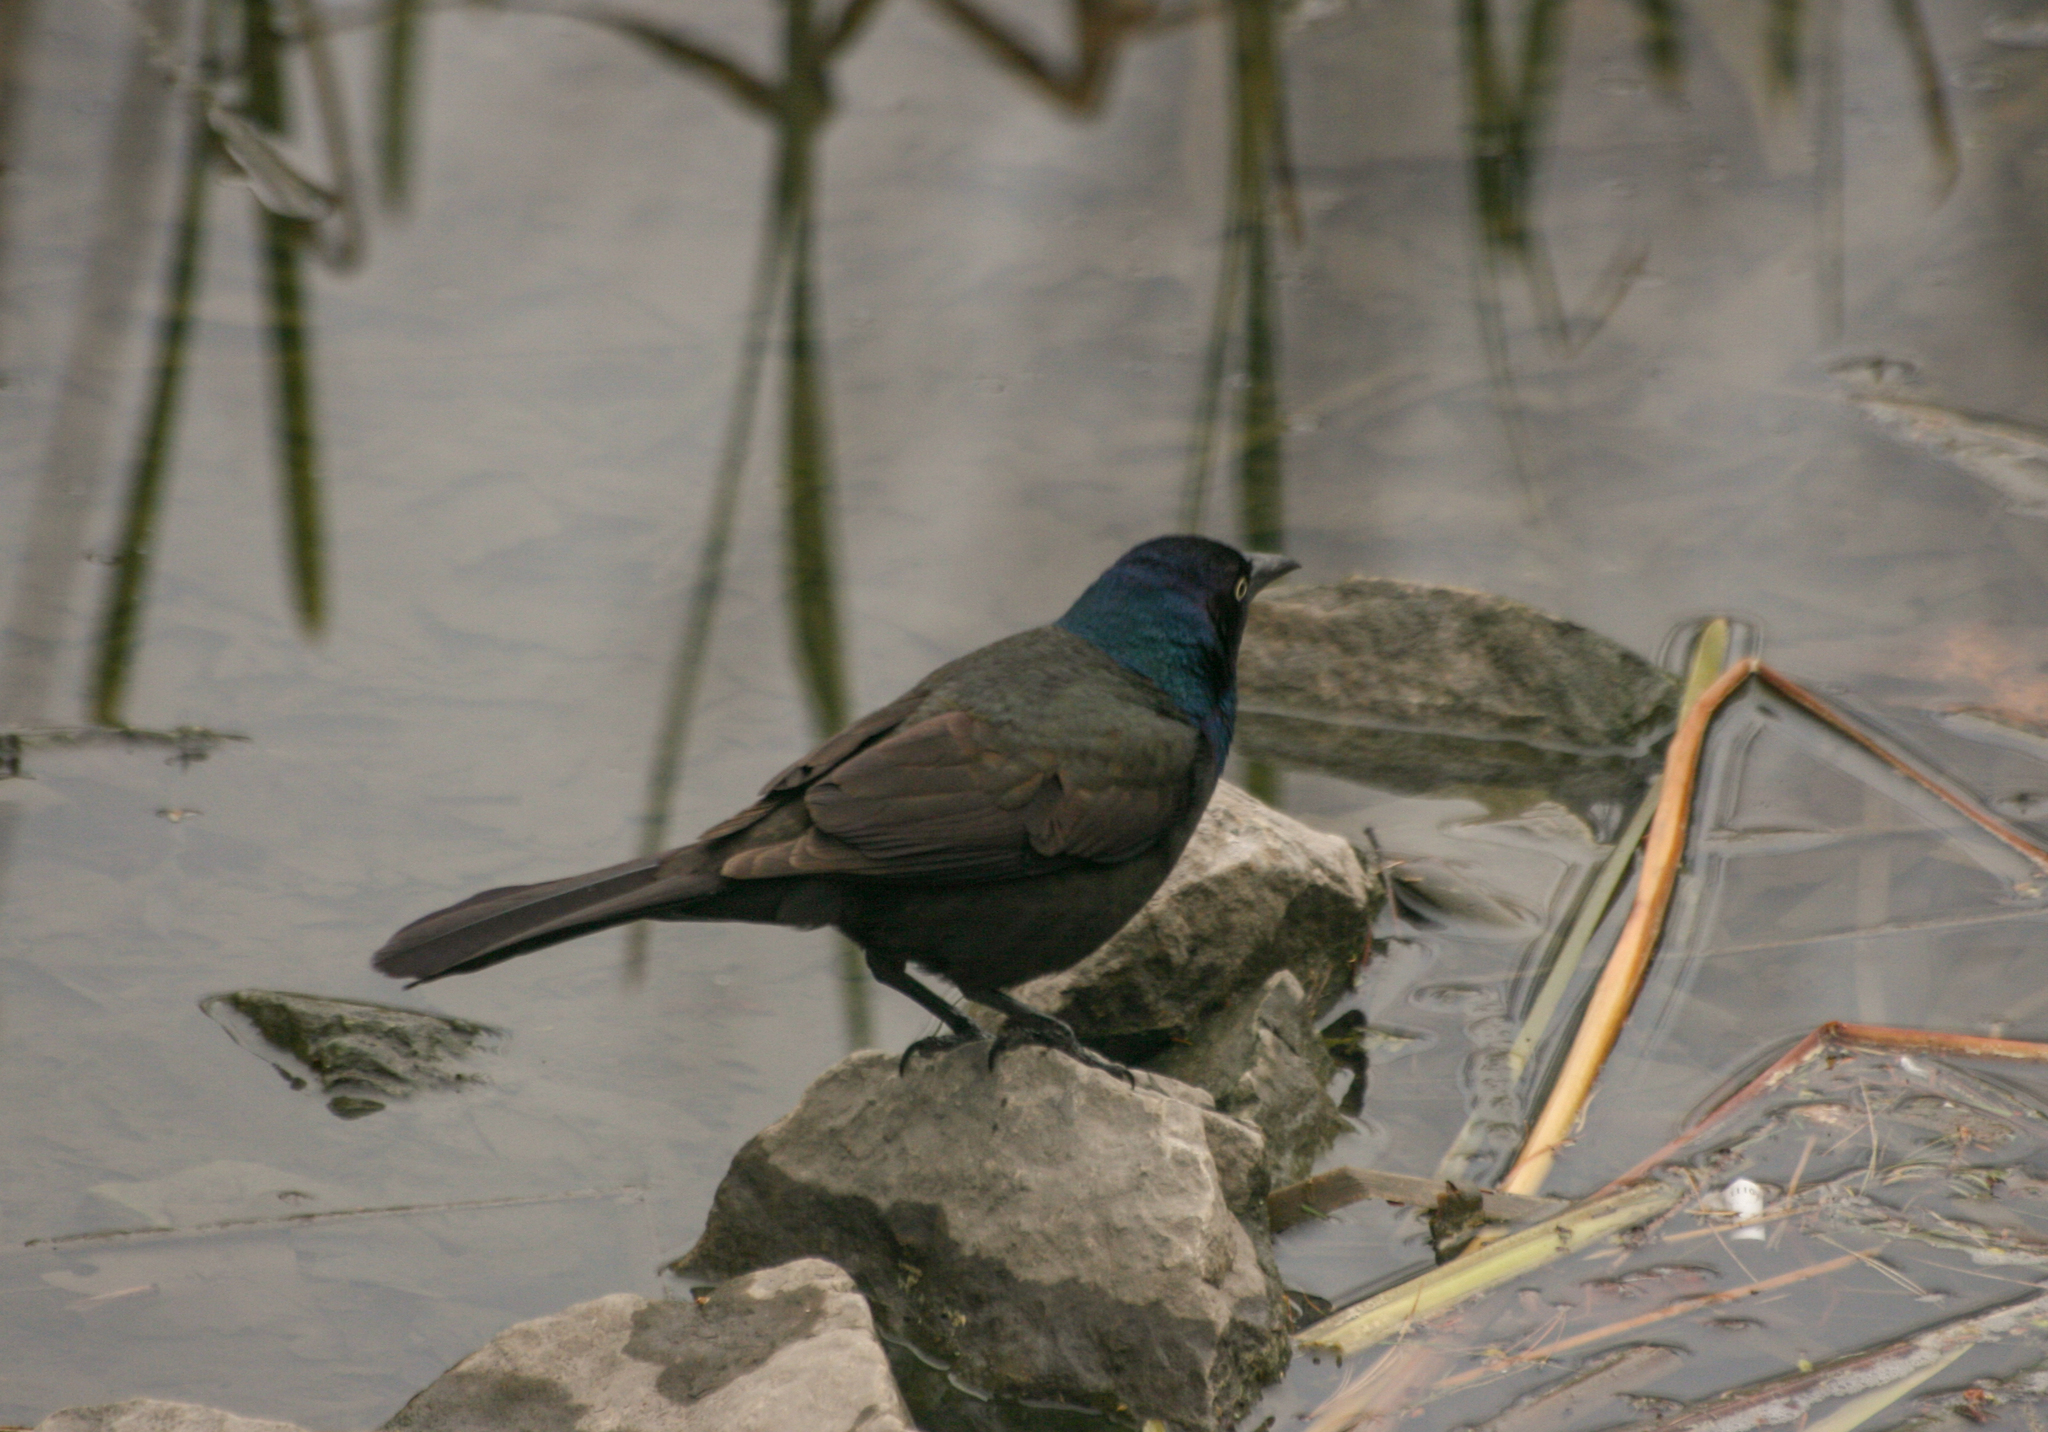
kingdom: Animalia
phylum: Chordata
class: Aves
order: Passeriformes
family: Icteridae
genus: Quiscalus
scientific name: Quiscalus quiscula
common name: Common grackle
